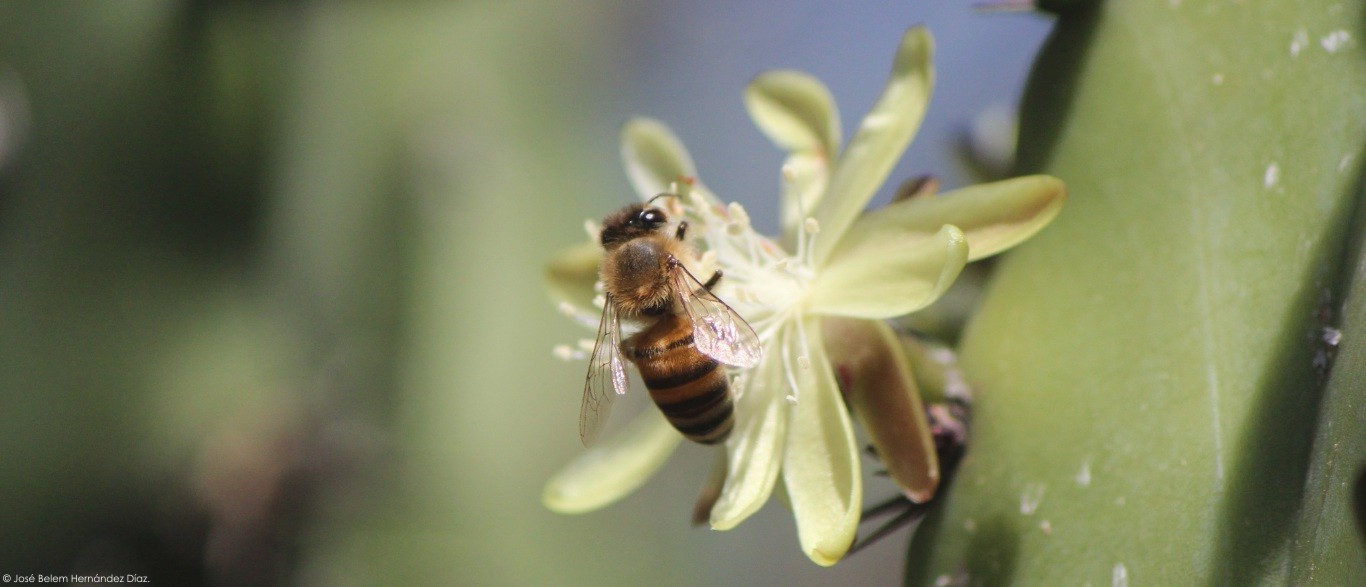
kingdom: Animalia
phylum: Arthropoda
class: Insecta
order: Hymenoptera
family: Apidae
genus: Apis
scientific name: Apis mellifera
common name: Honey bee
